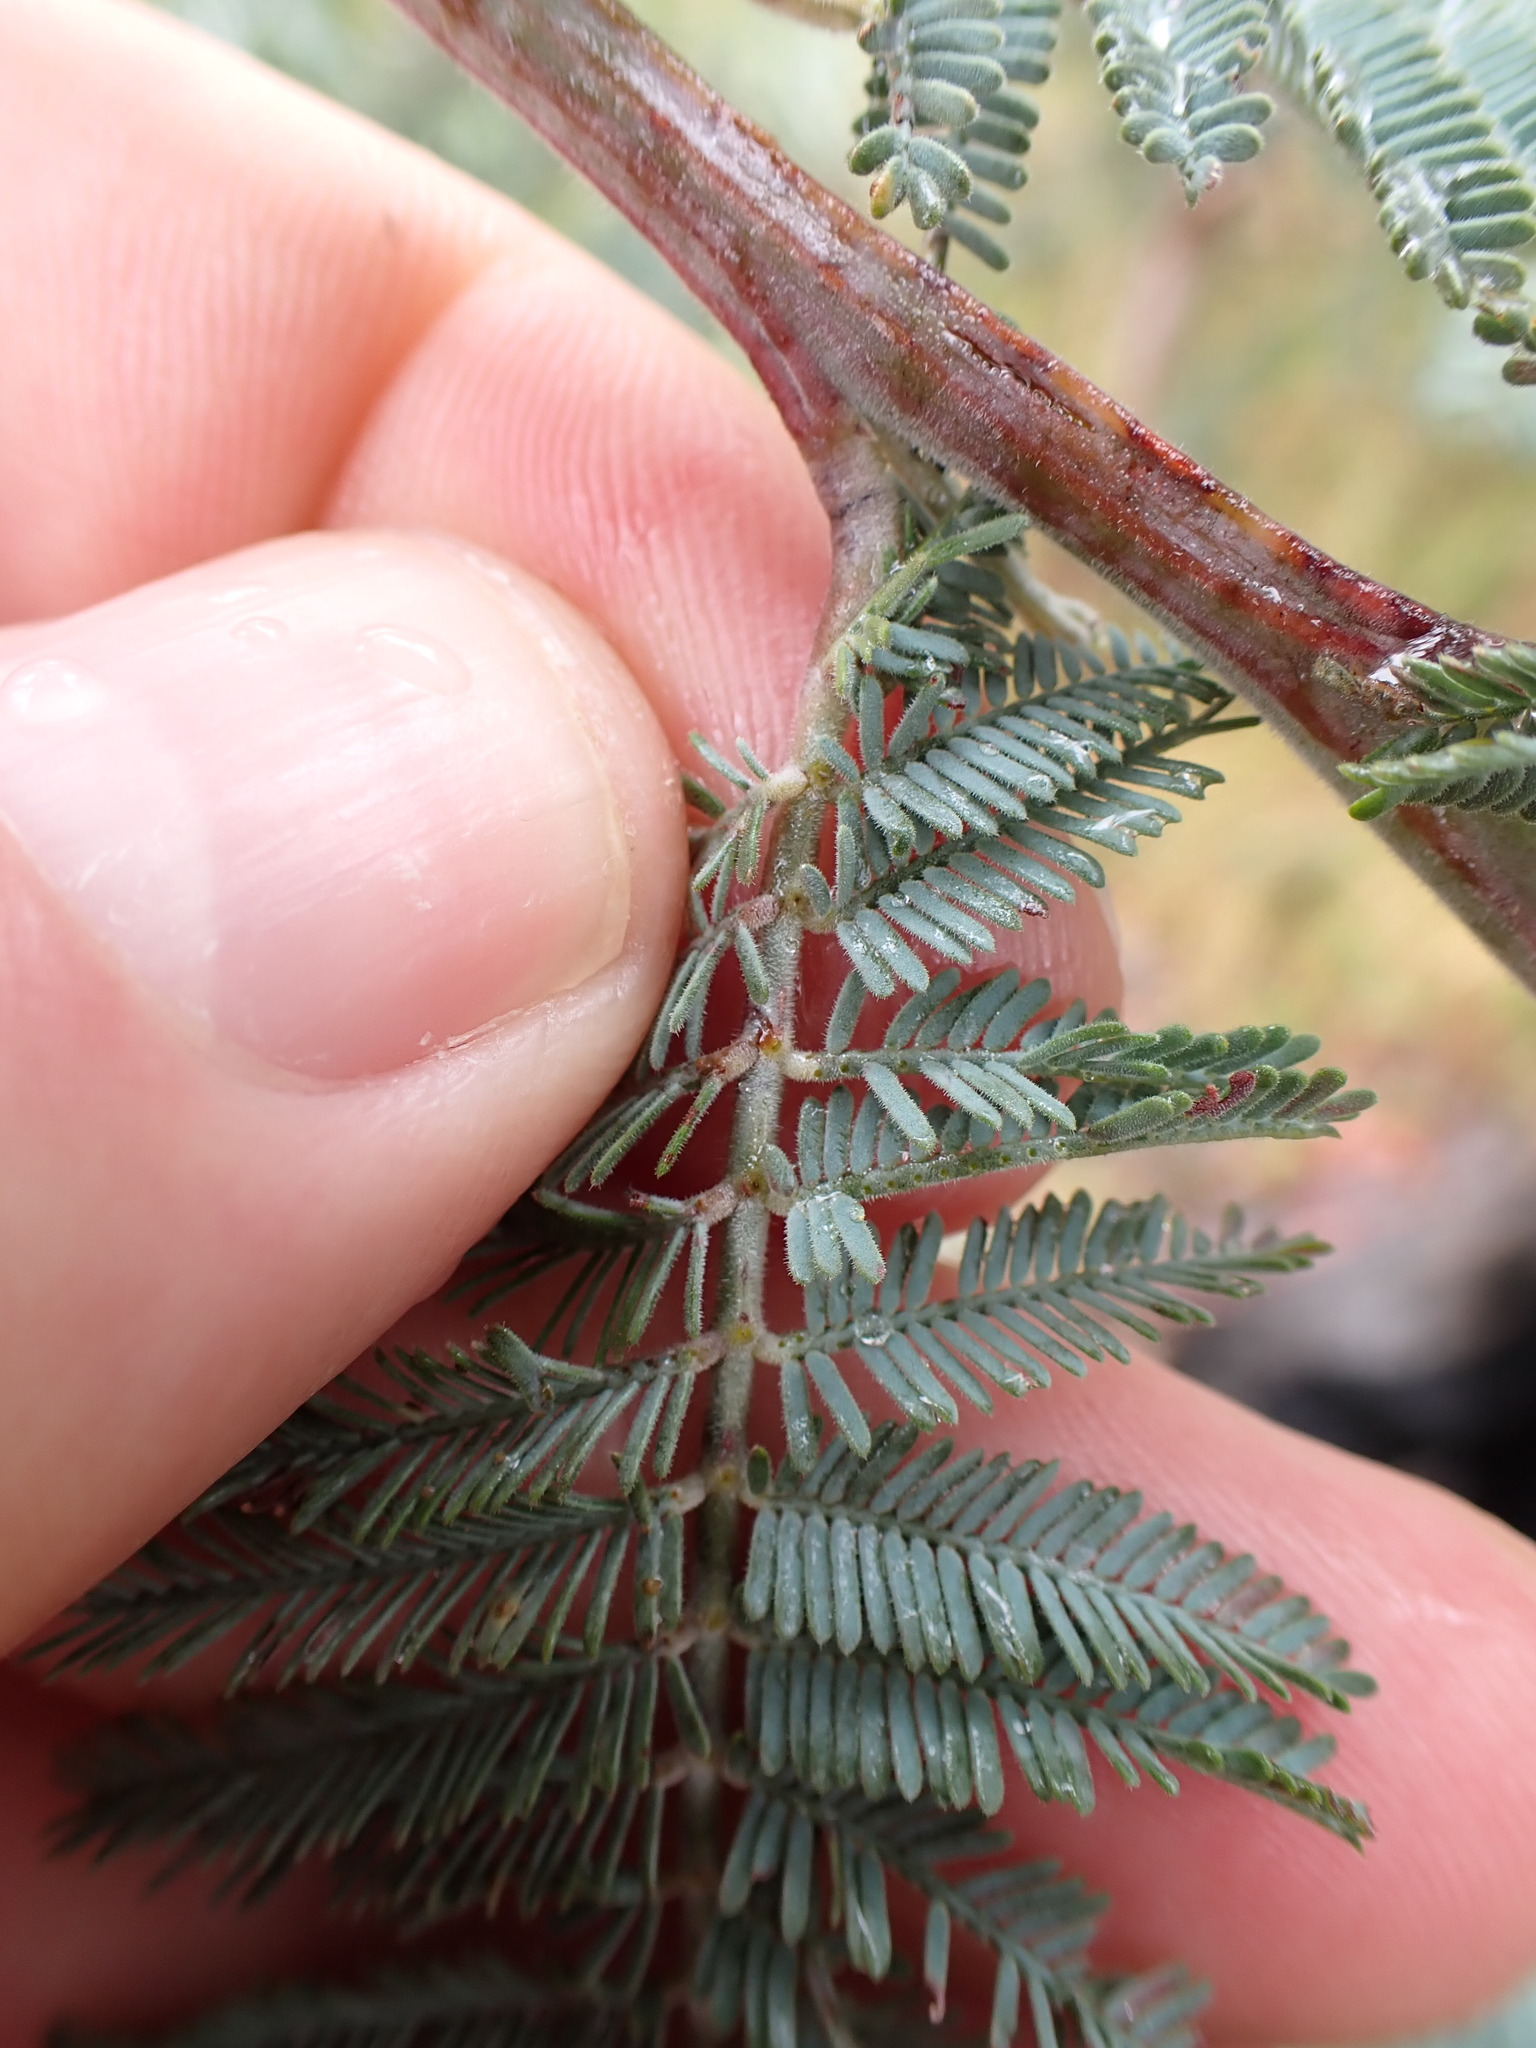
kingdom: Plantae
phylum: Tracheophyta
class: Magnoliopsida
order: Fabales
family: Fabaceae
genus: Acacia
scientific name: Acacia dealbata
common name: Silver wattle
